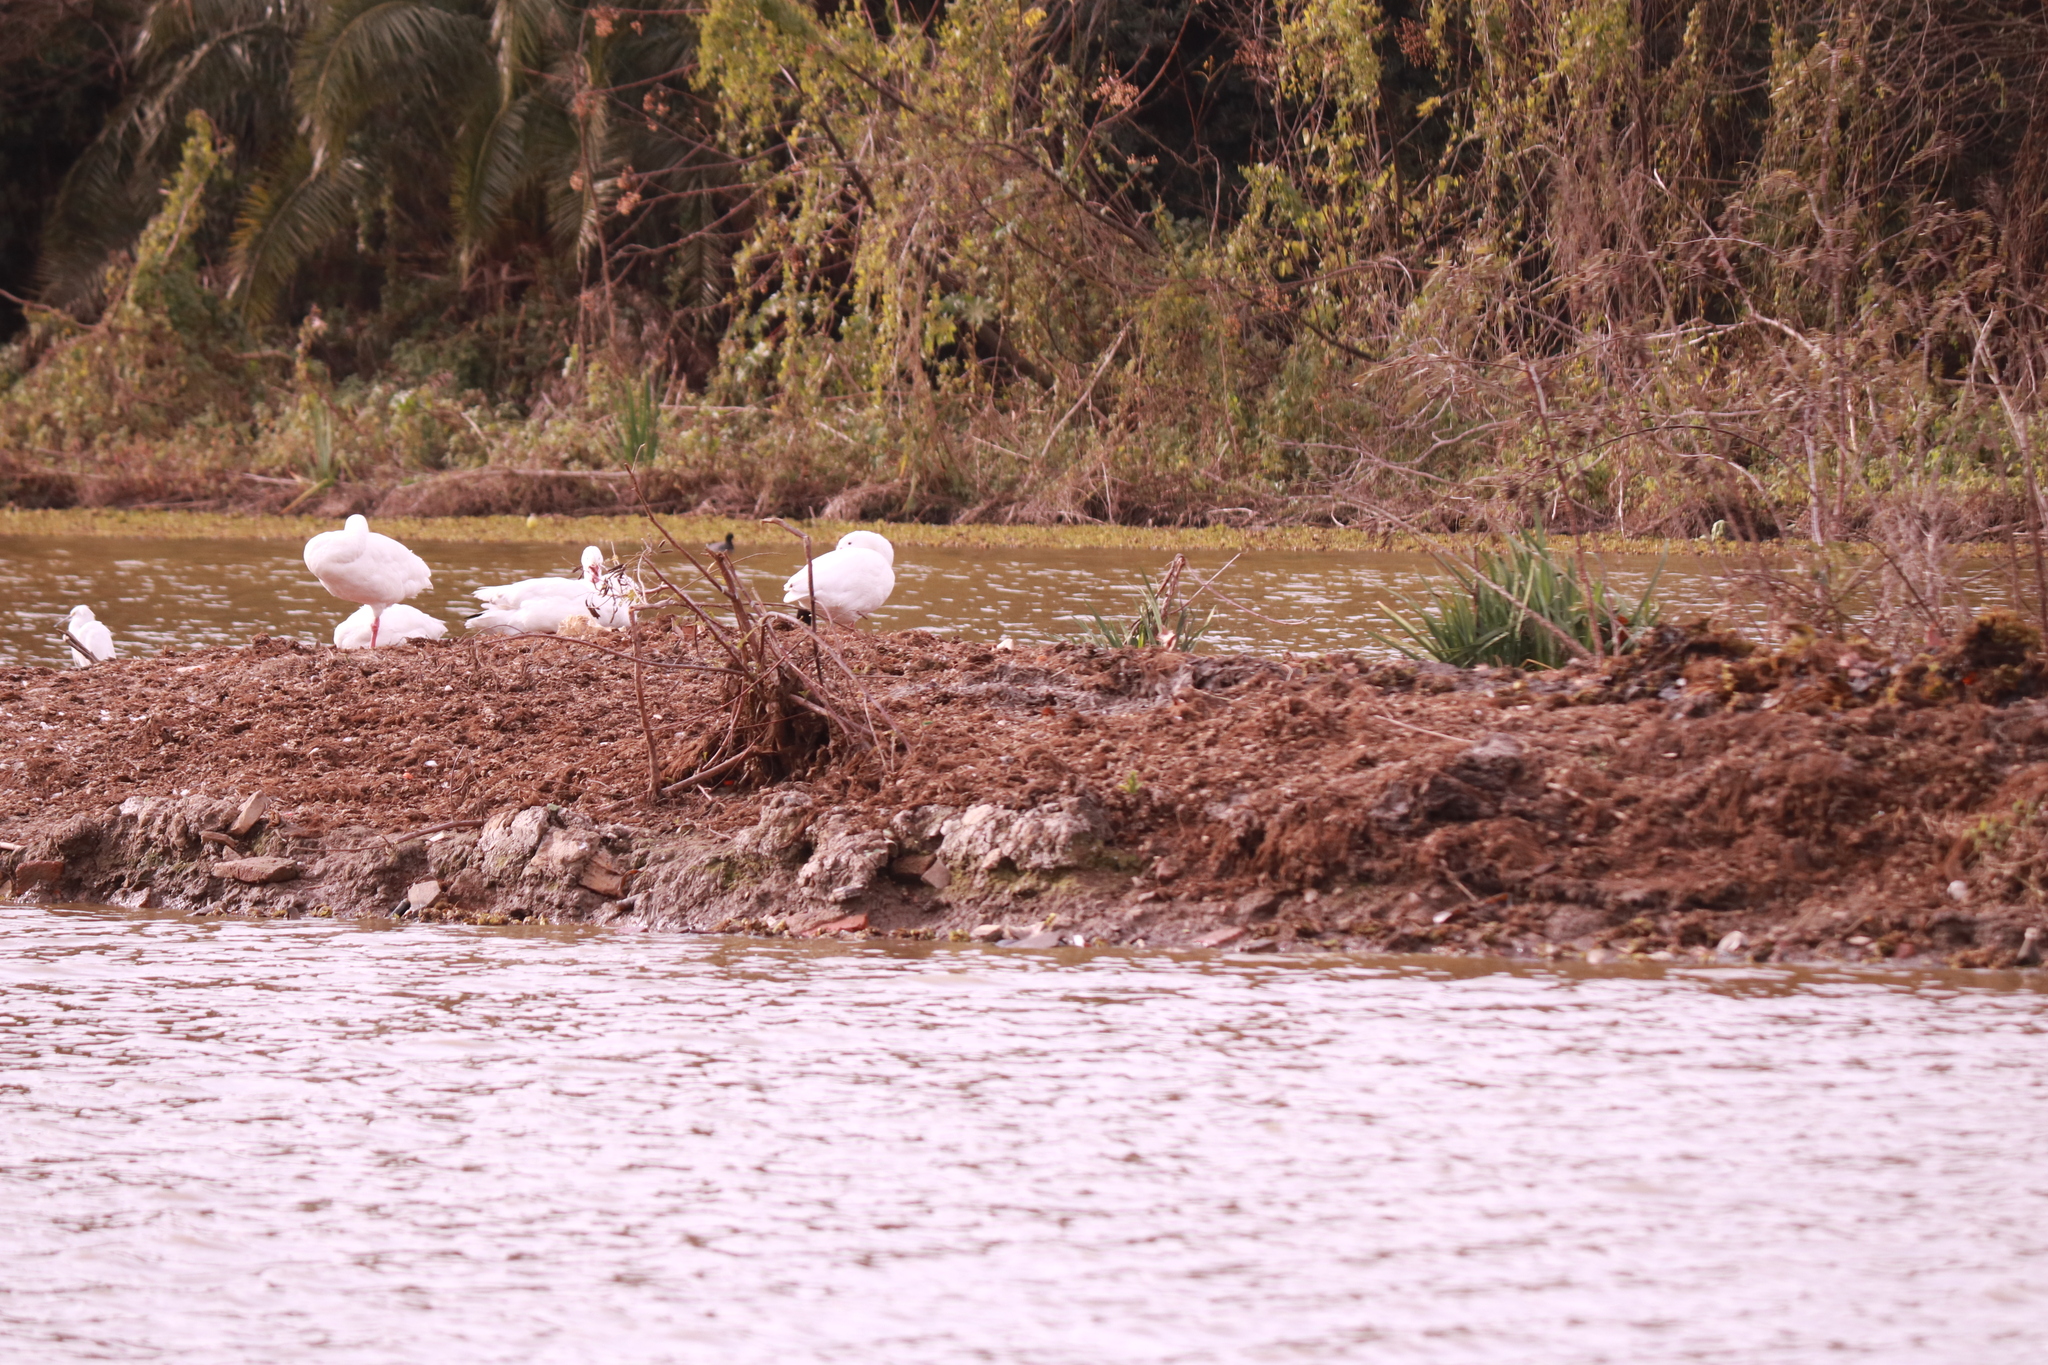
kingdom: Animalia
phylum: Chordata
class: Aves
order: Anseriformes
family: Anatidae
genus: Coscoroba
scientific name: Coscoroba coscoroba
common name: Coscoroba swan
